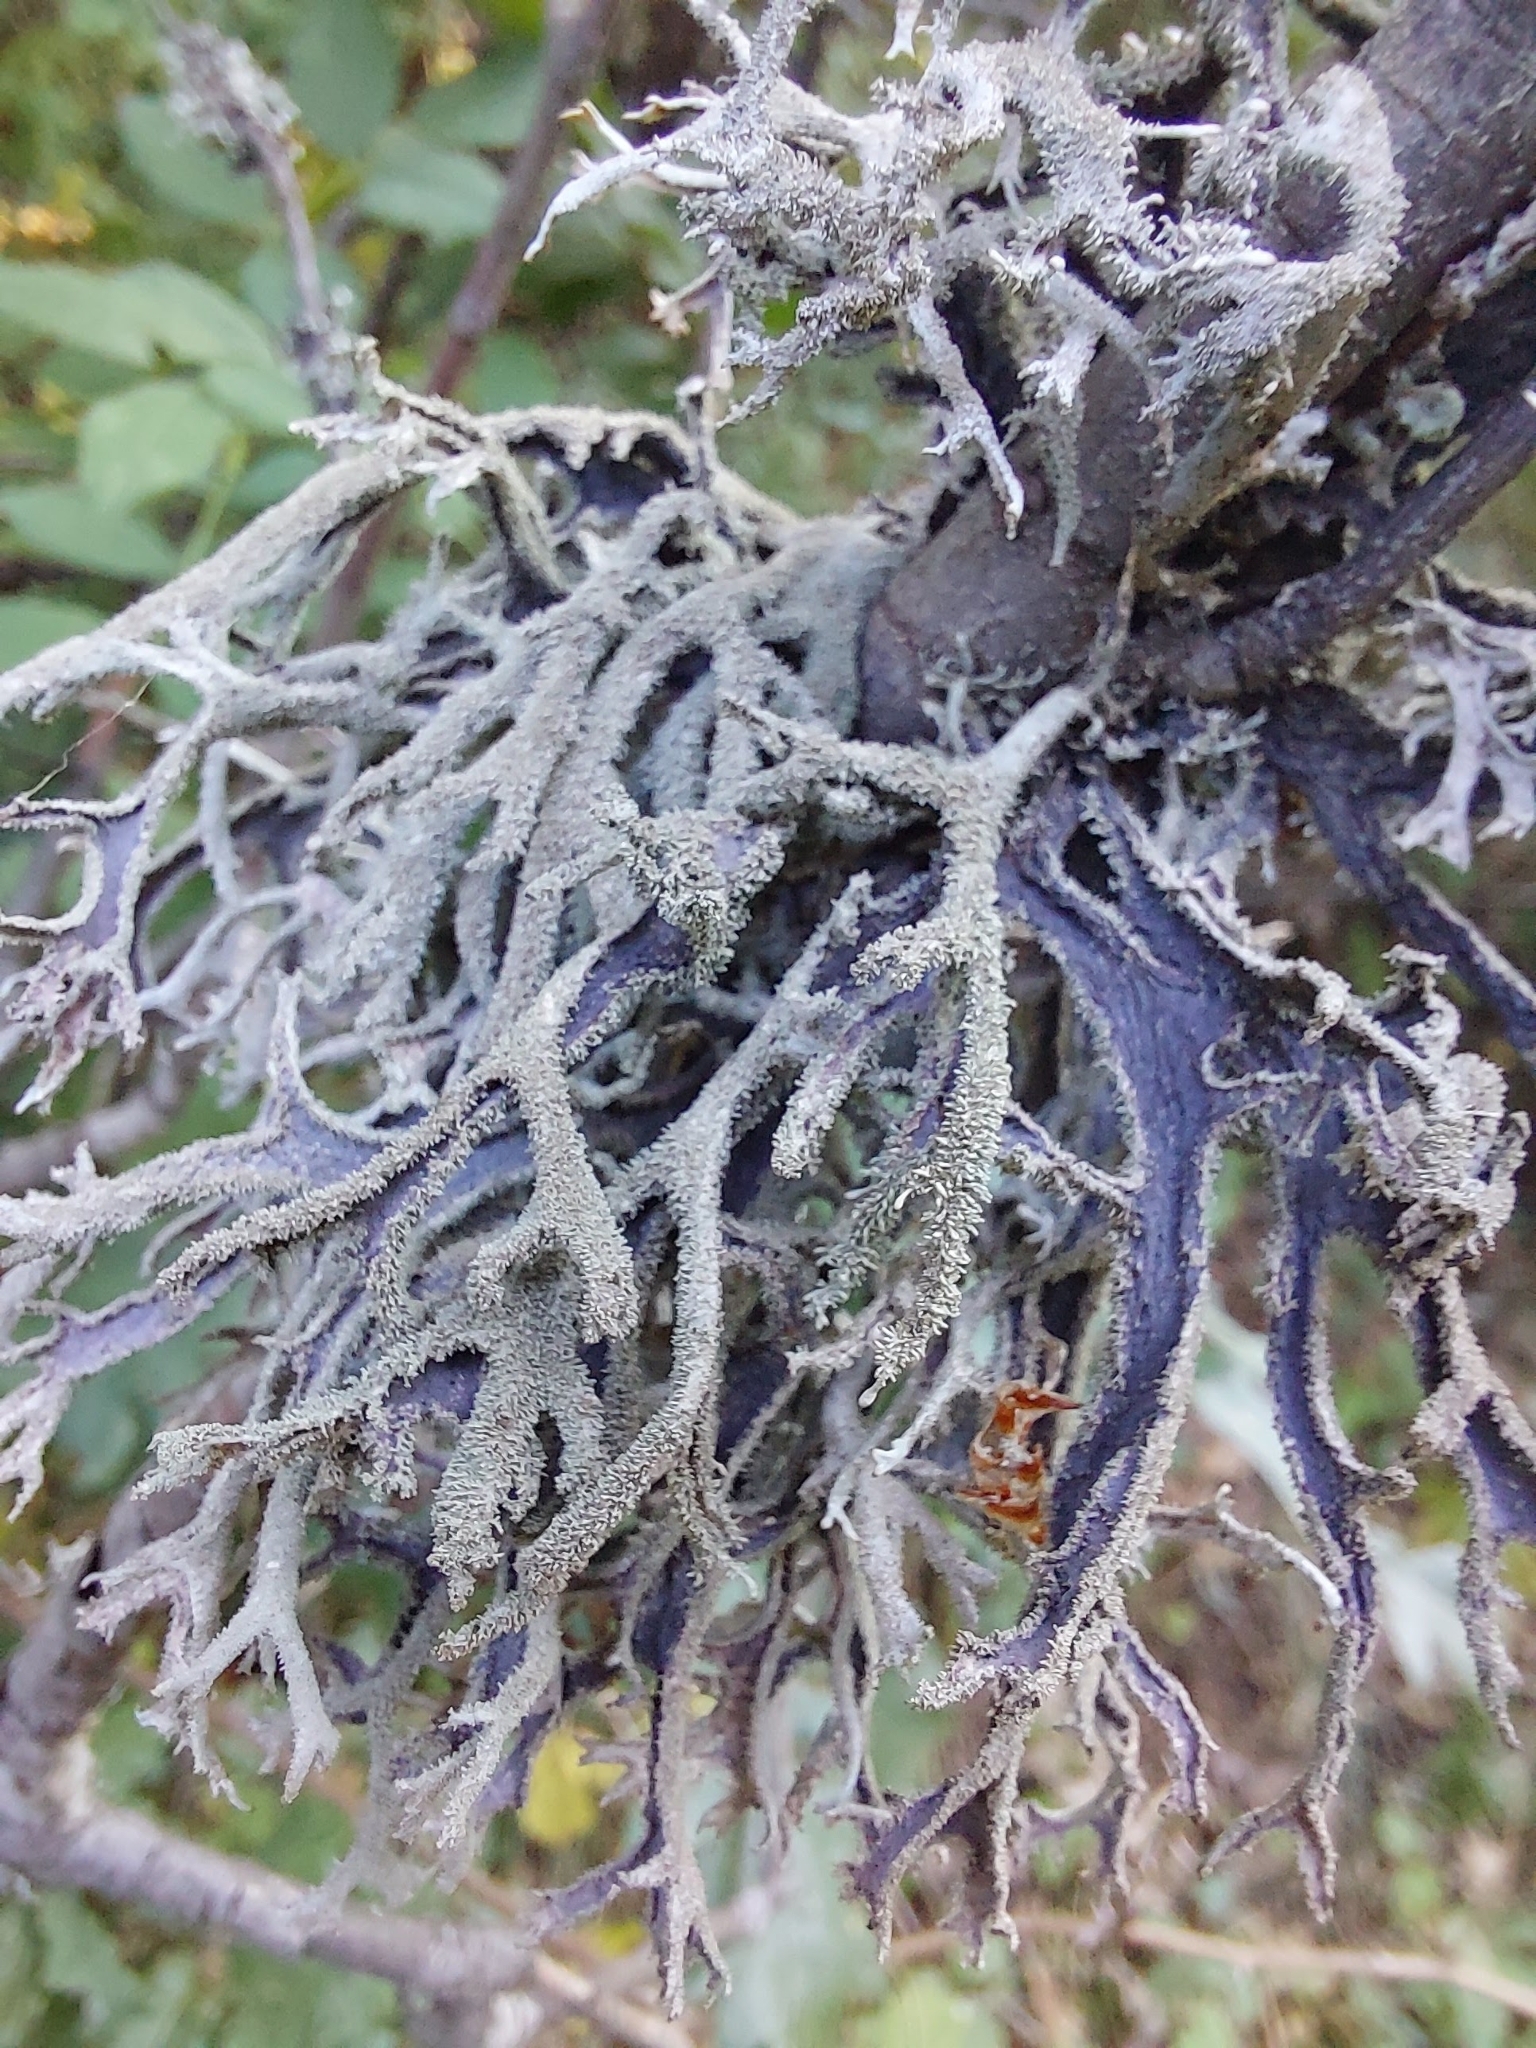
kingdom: Fungi
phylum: Ascomycota
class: Lecanoromycetes
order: Lecanorales
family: Parmeliaceae
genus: Pseudevernia
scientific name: Pseudevernia furfuracea
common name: Tree moss
